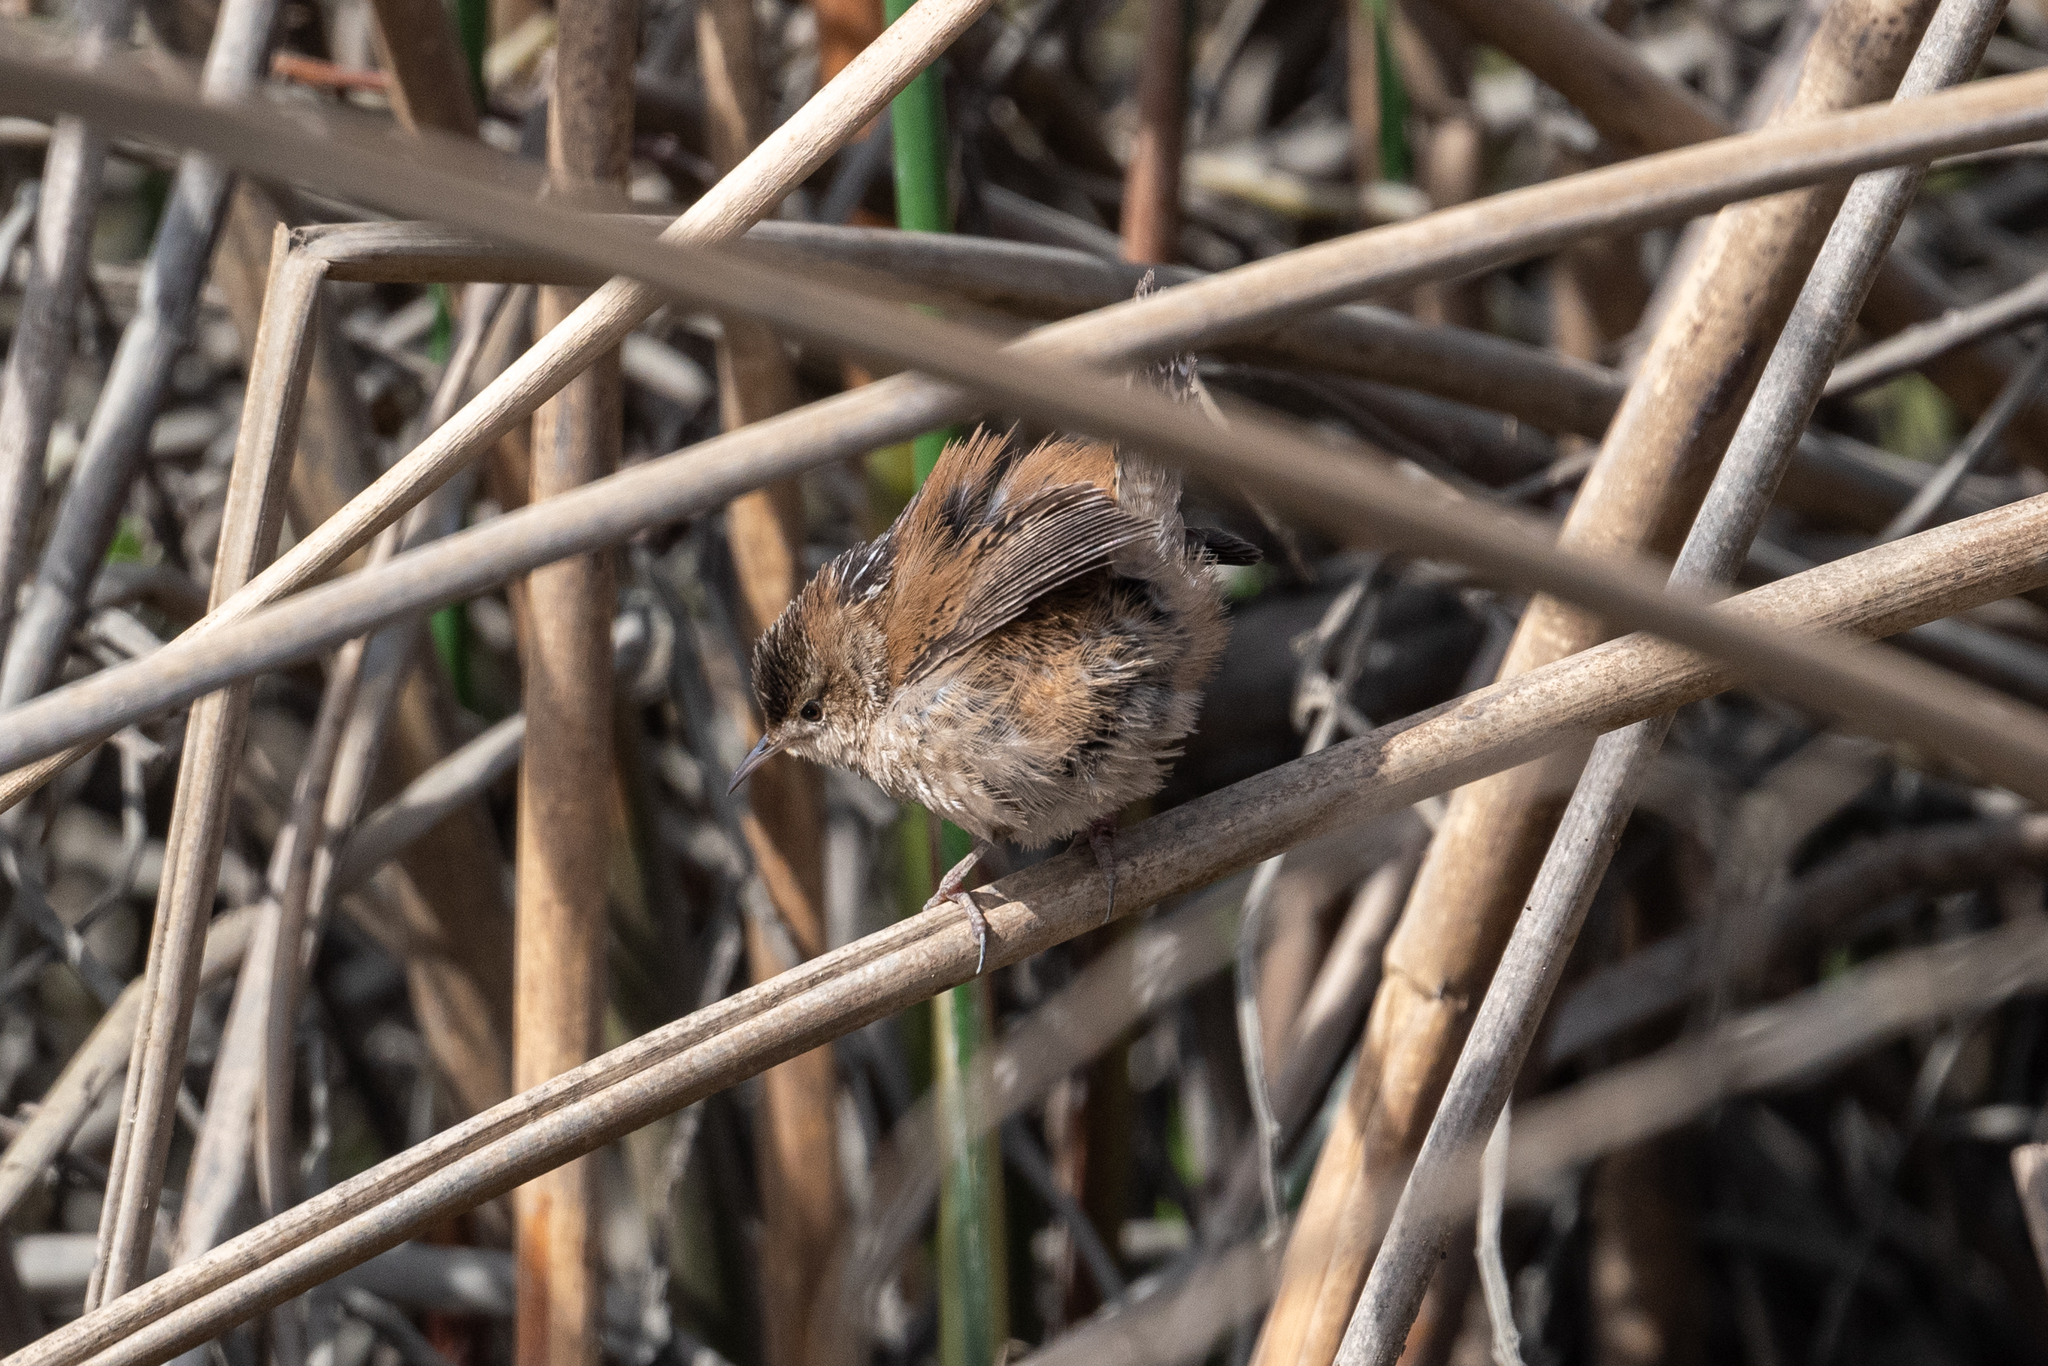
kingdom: Animalia
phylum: Chordata
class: Aves
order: Passeriformes
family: Troglodytidae
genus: Cistothorus
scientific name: Cistothorus palustris
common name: Marsh wren
